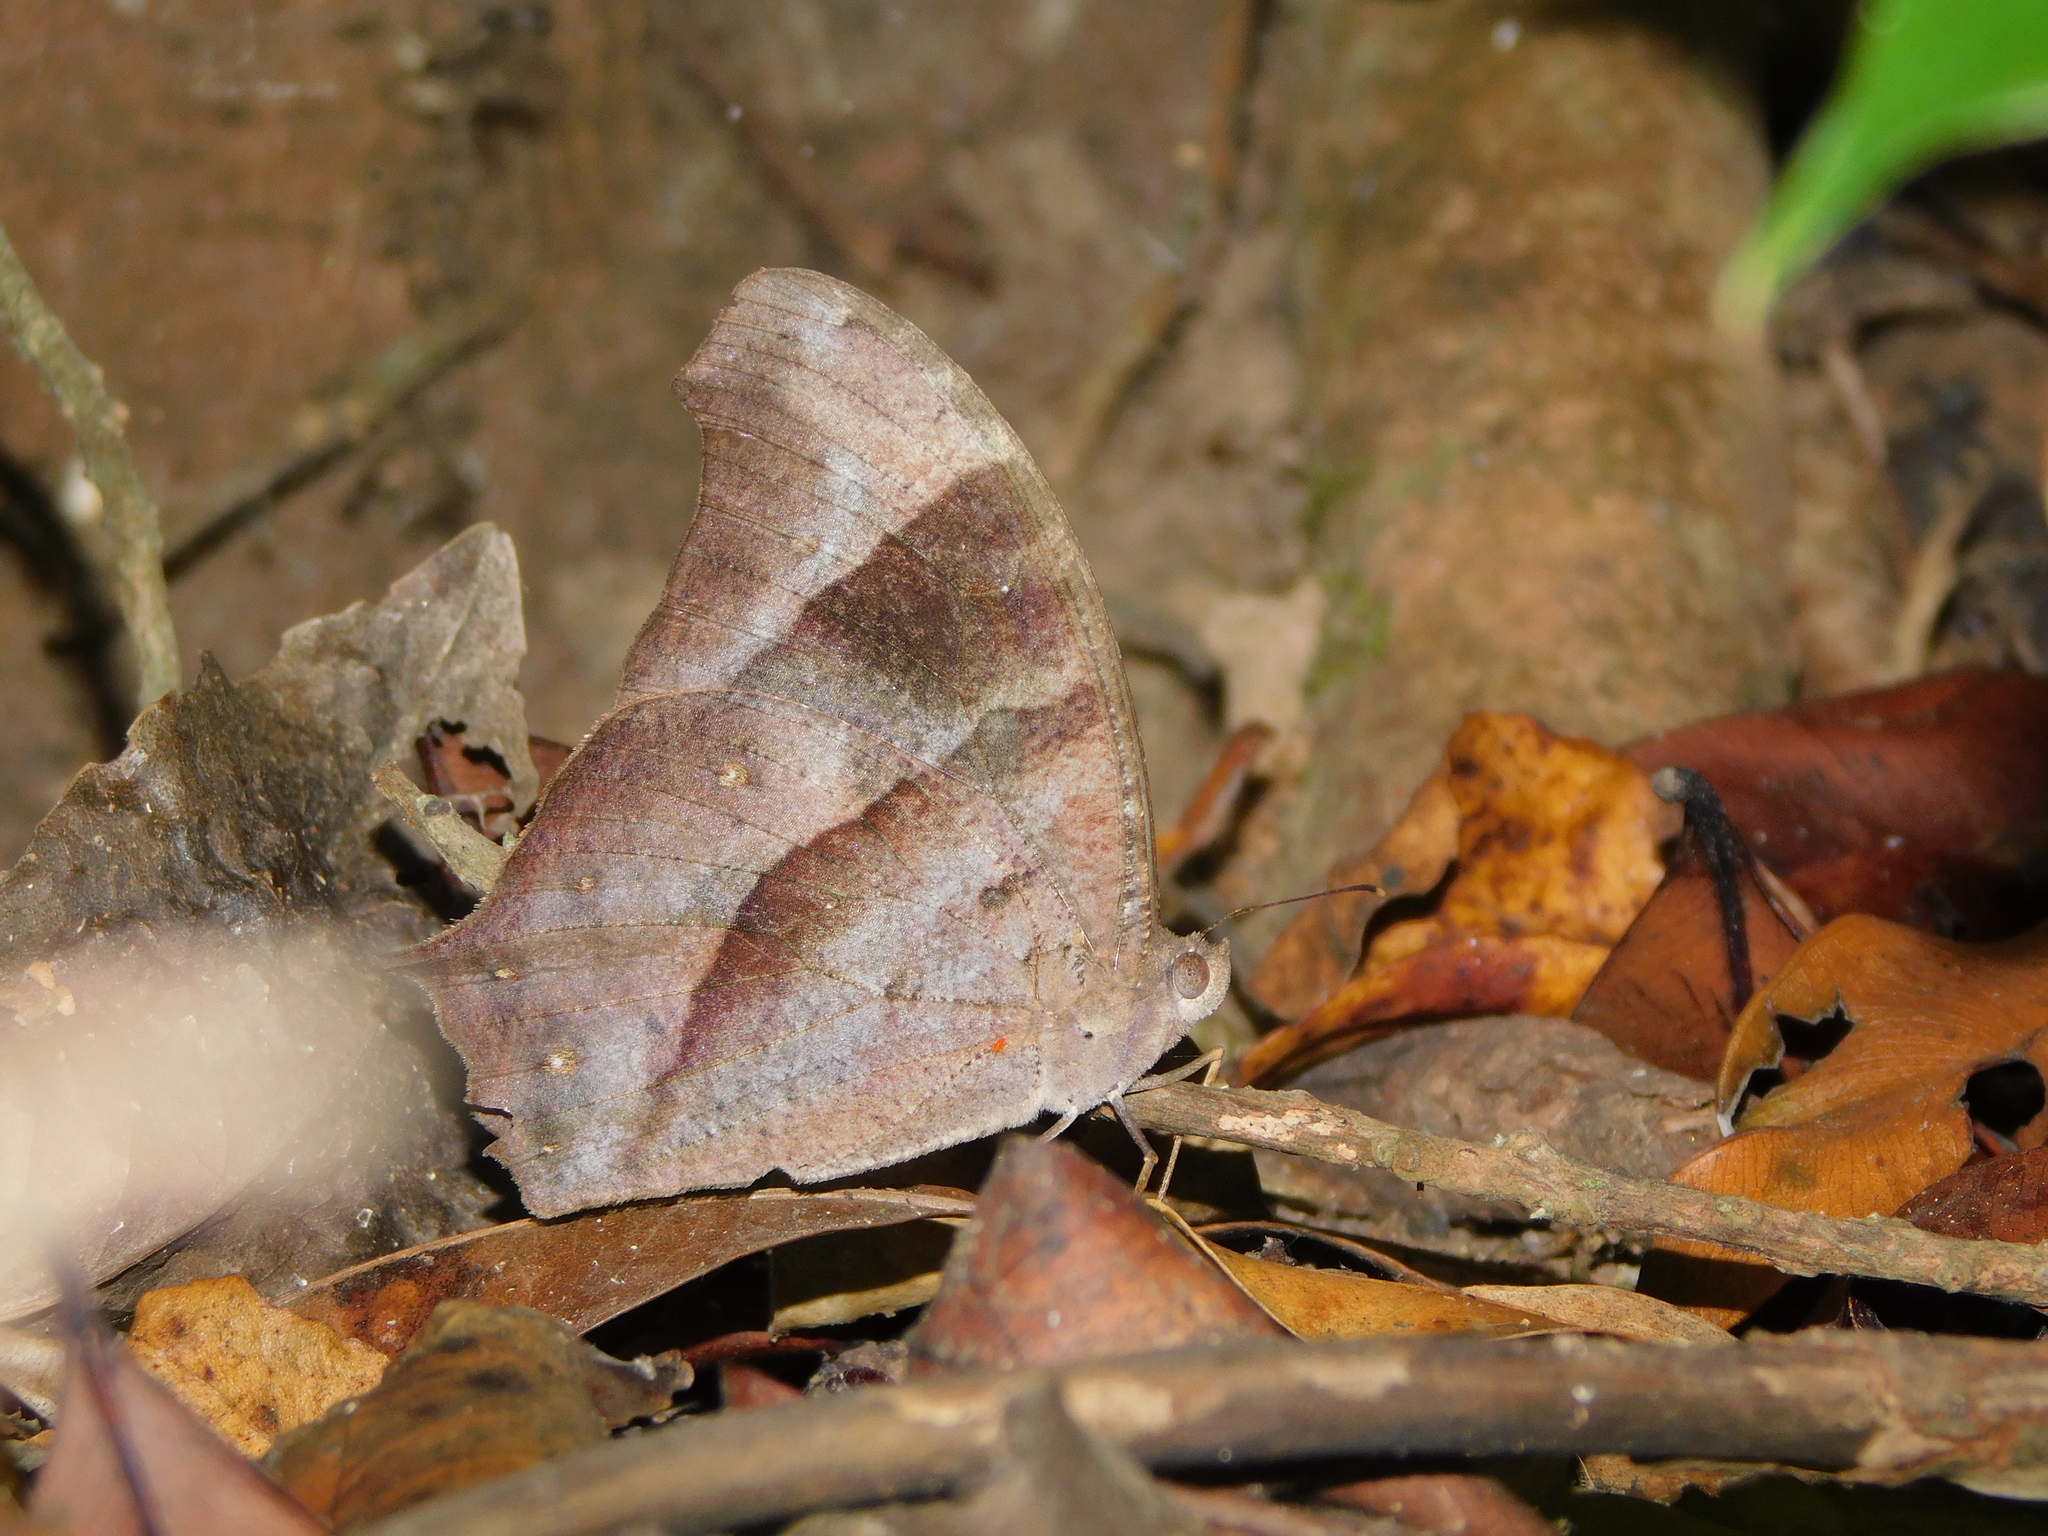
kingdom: Animalia
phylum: Arthropoda
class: Insecta
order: Lepidoptera
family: Nymphalidae
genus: Melanitis
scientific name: Melanitis leda
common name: Twilight brown
